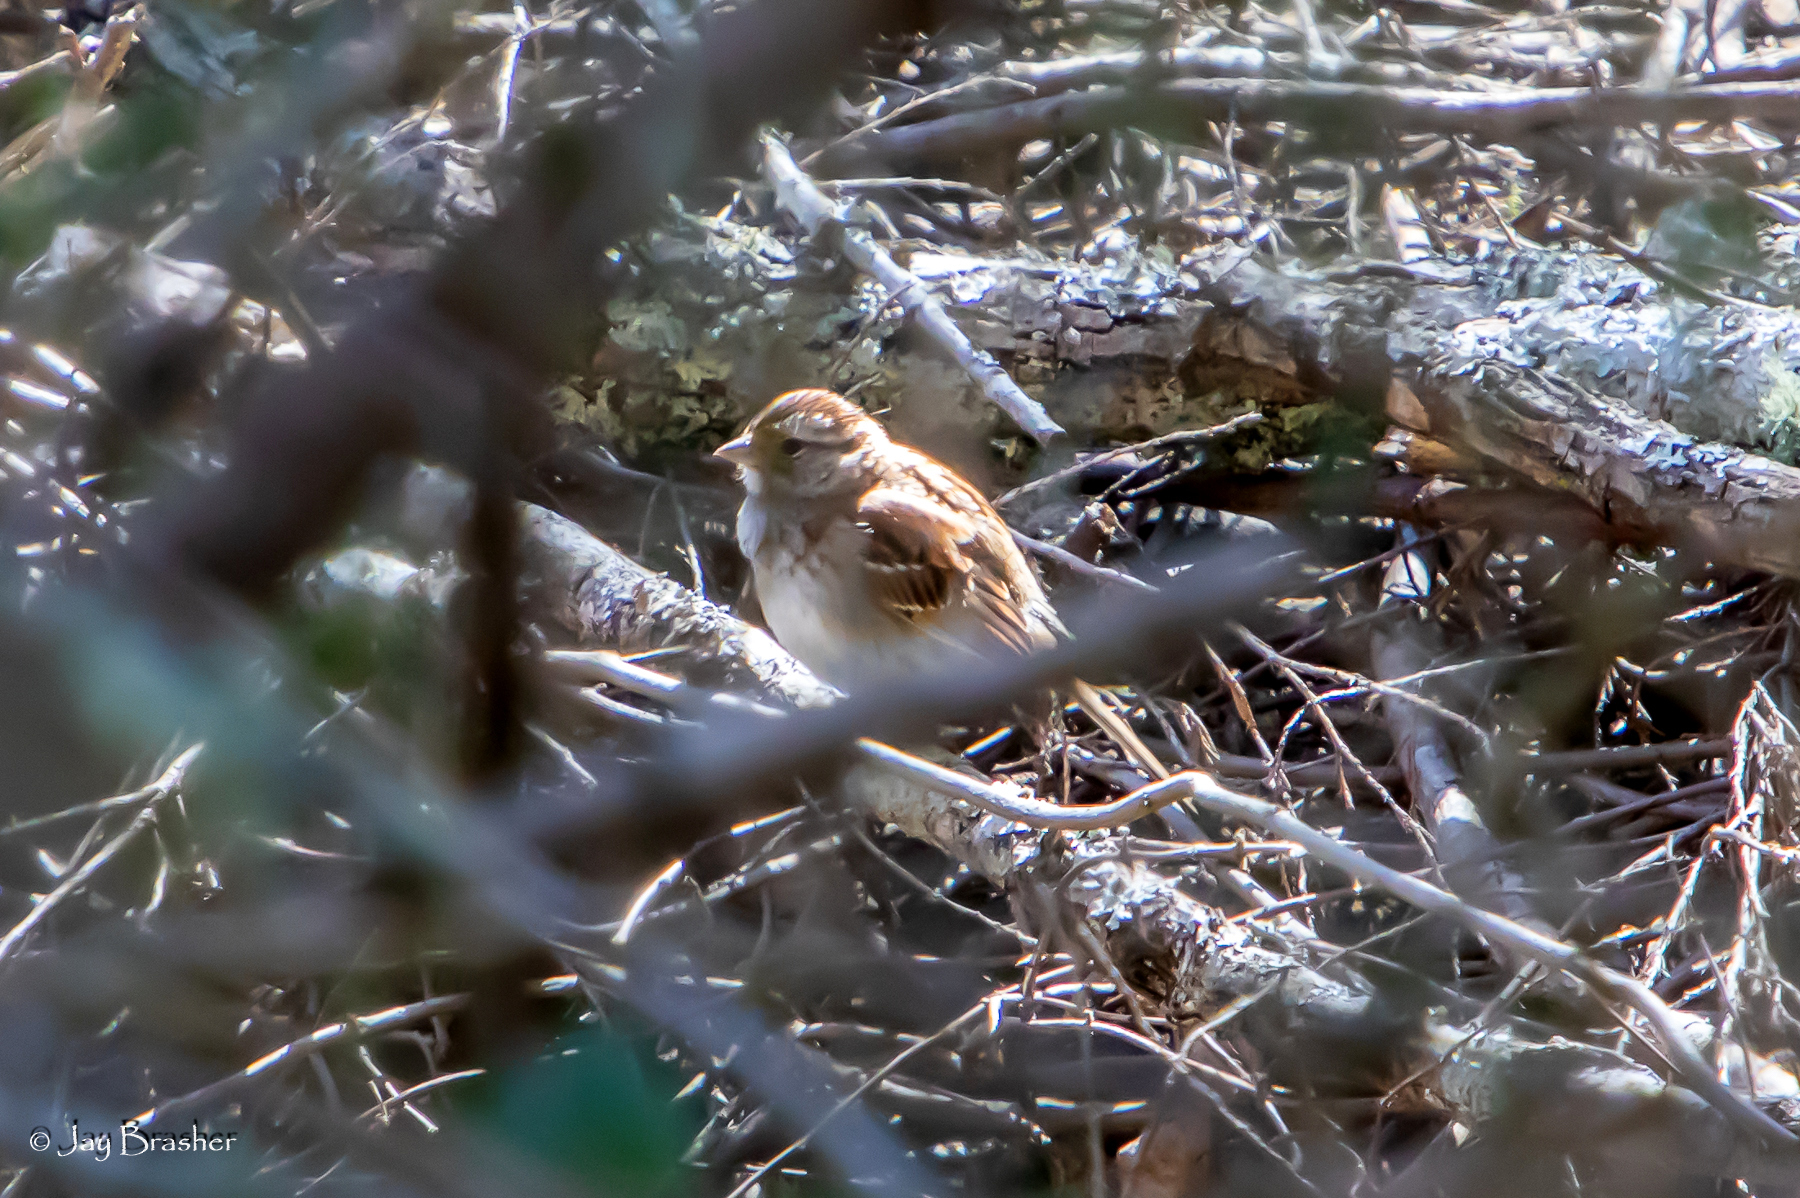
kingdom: Animalia
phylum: Chordata
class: Aves
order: Passeriformes
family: Passerellidae
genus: Zonotrichia
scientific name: Zonotrichia albicollis
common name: White-throated sparrow
